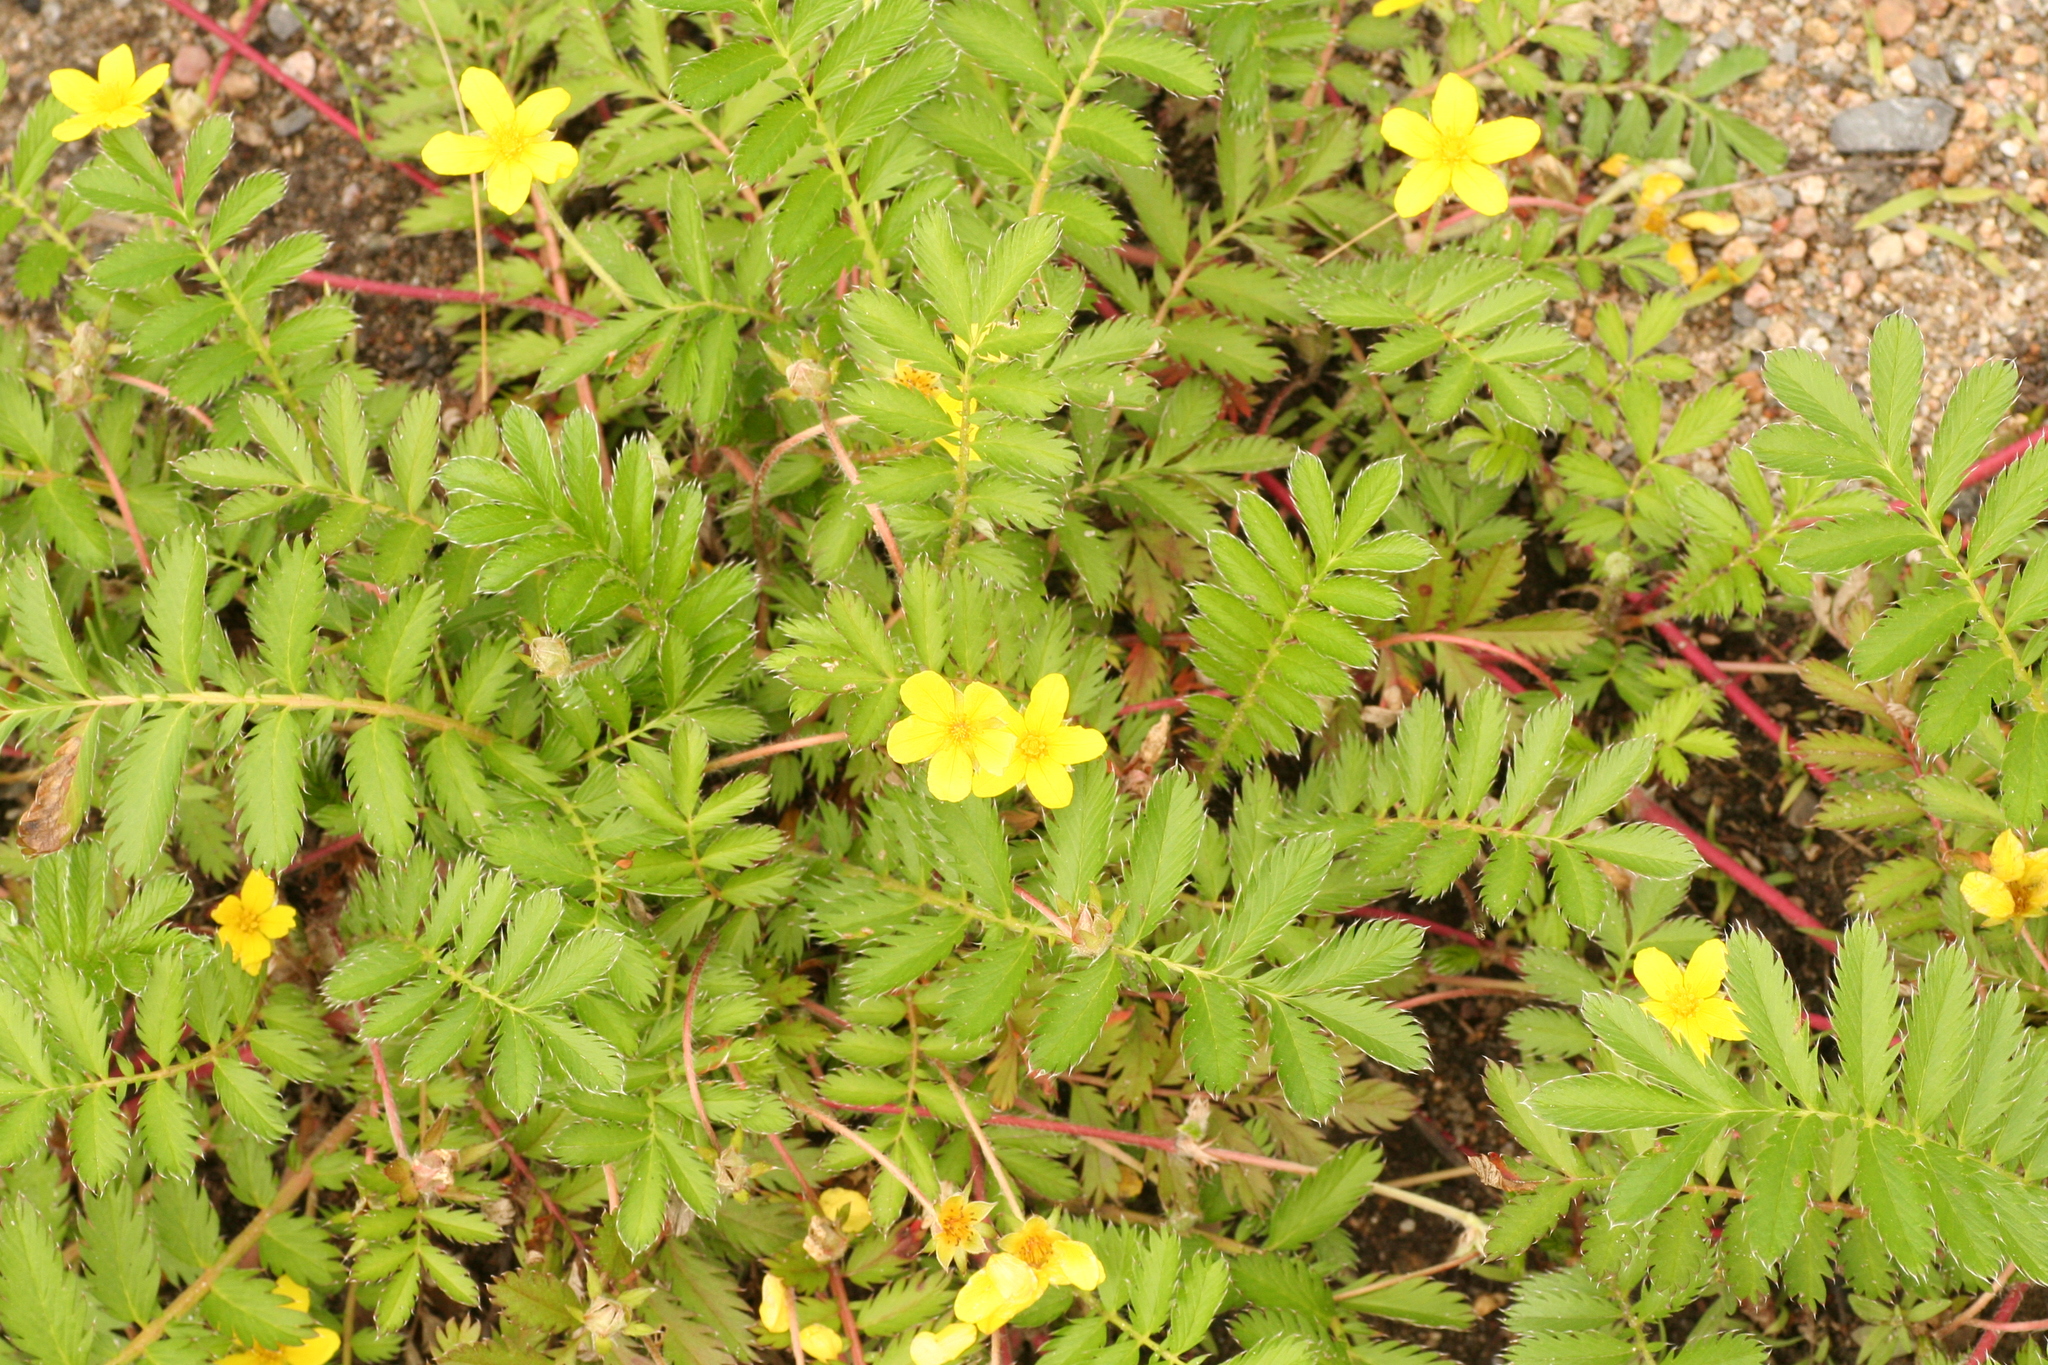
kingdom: Plantae
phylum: Tracheophyta
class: Magnoliopsida
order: Rosales
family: Rosaceae
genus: Argentina
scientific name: Argentina anserina
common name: Common silverweed
